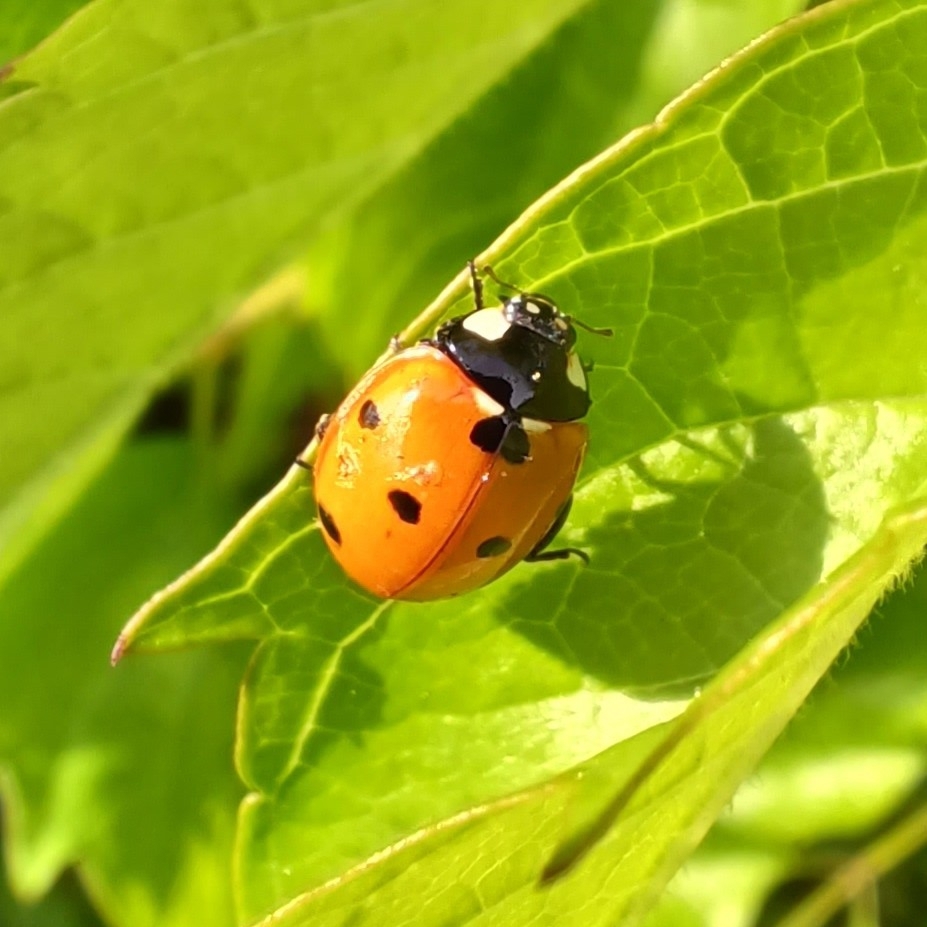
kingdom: Animalia
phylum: Arthropoda
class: Insecta
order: Coleoptera
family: Coccinellidae
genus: Coccinella
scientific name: Coccinella septempunctata
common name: Sevenspotted lady beetle
